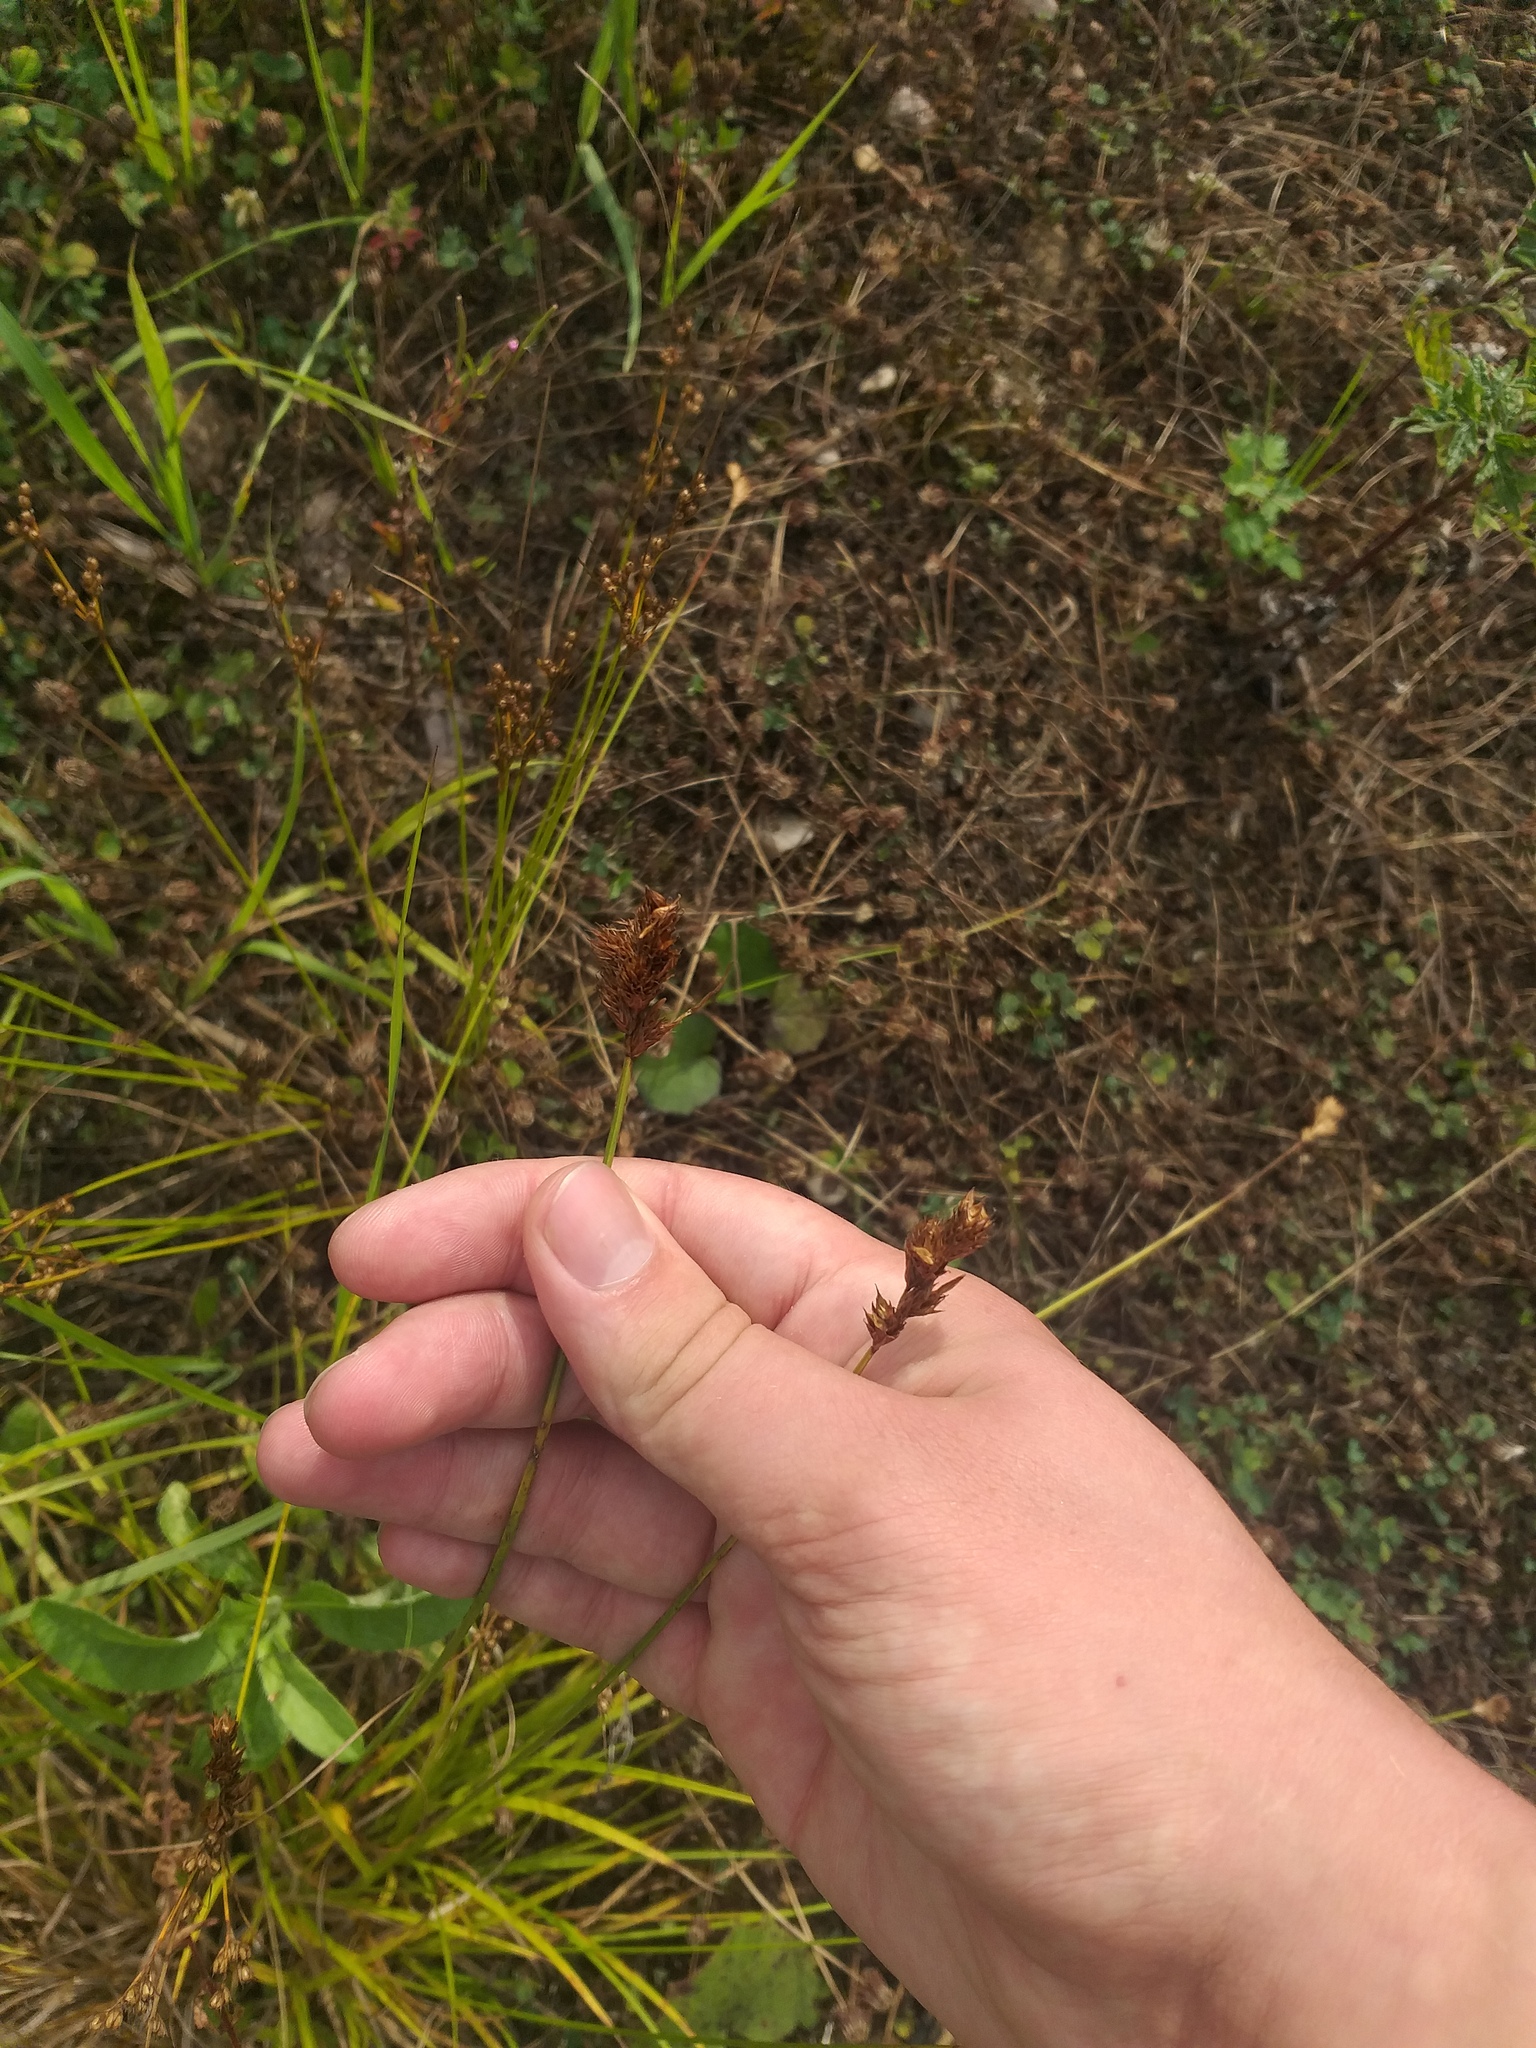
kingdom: Plantae
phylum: Tracheophyta
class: Liliopsida
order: Poales
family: Cyperaceae
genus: Carex
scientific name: Carex leporina
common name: Oval sedge
